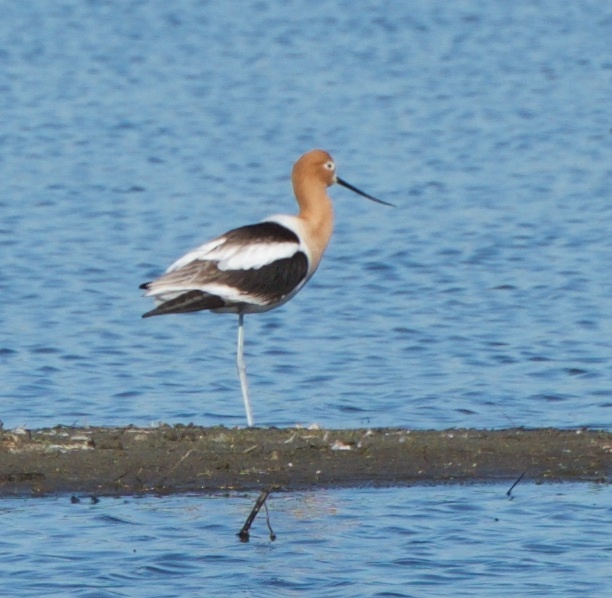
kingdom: Animalia
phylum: Chordata
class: Aves
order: Charadriiformes
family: Recurvirostridae
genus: Recurvirostra
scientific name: Recurvirostra americana
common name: American avocet
